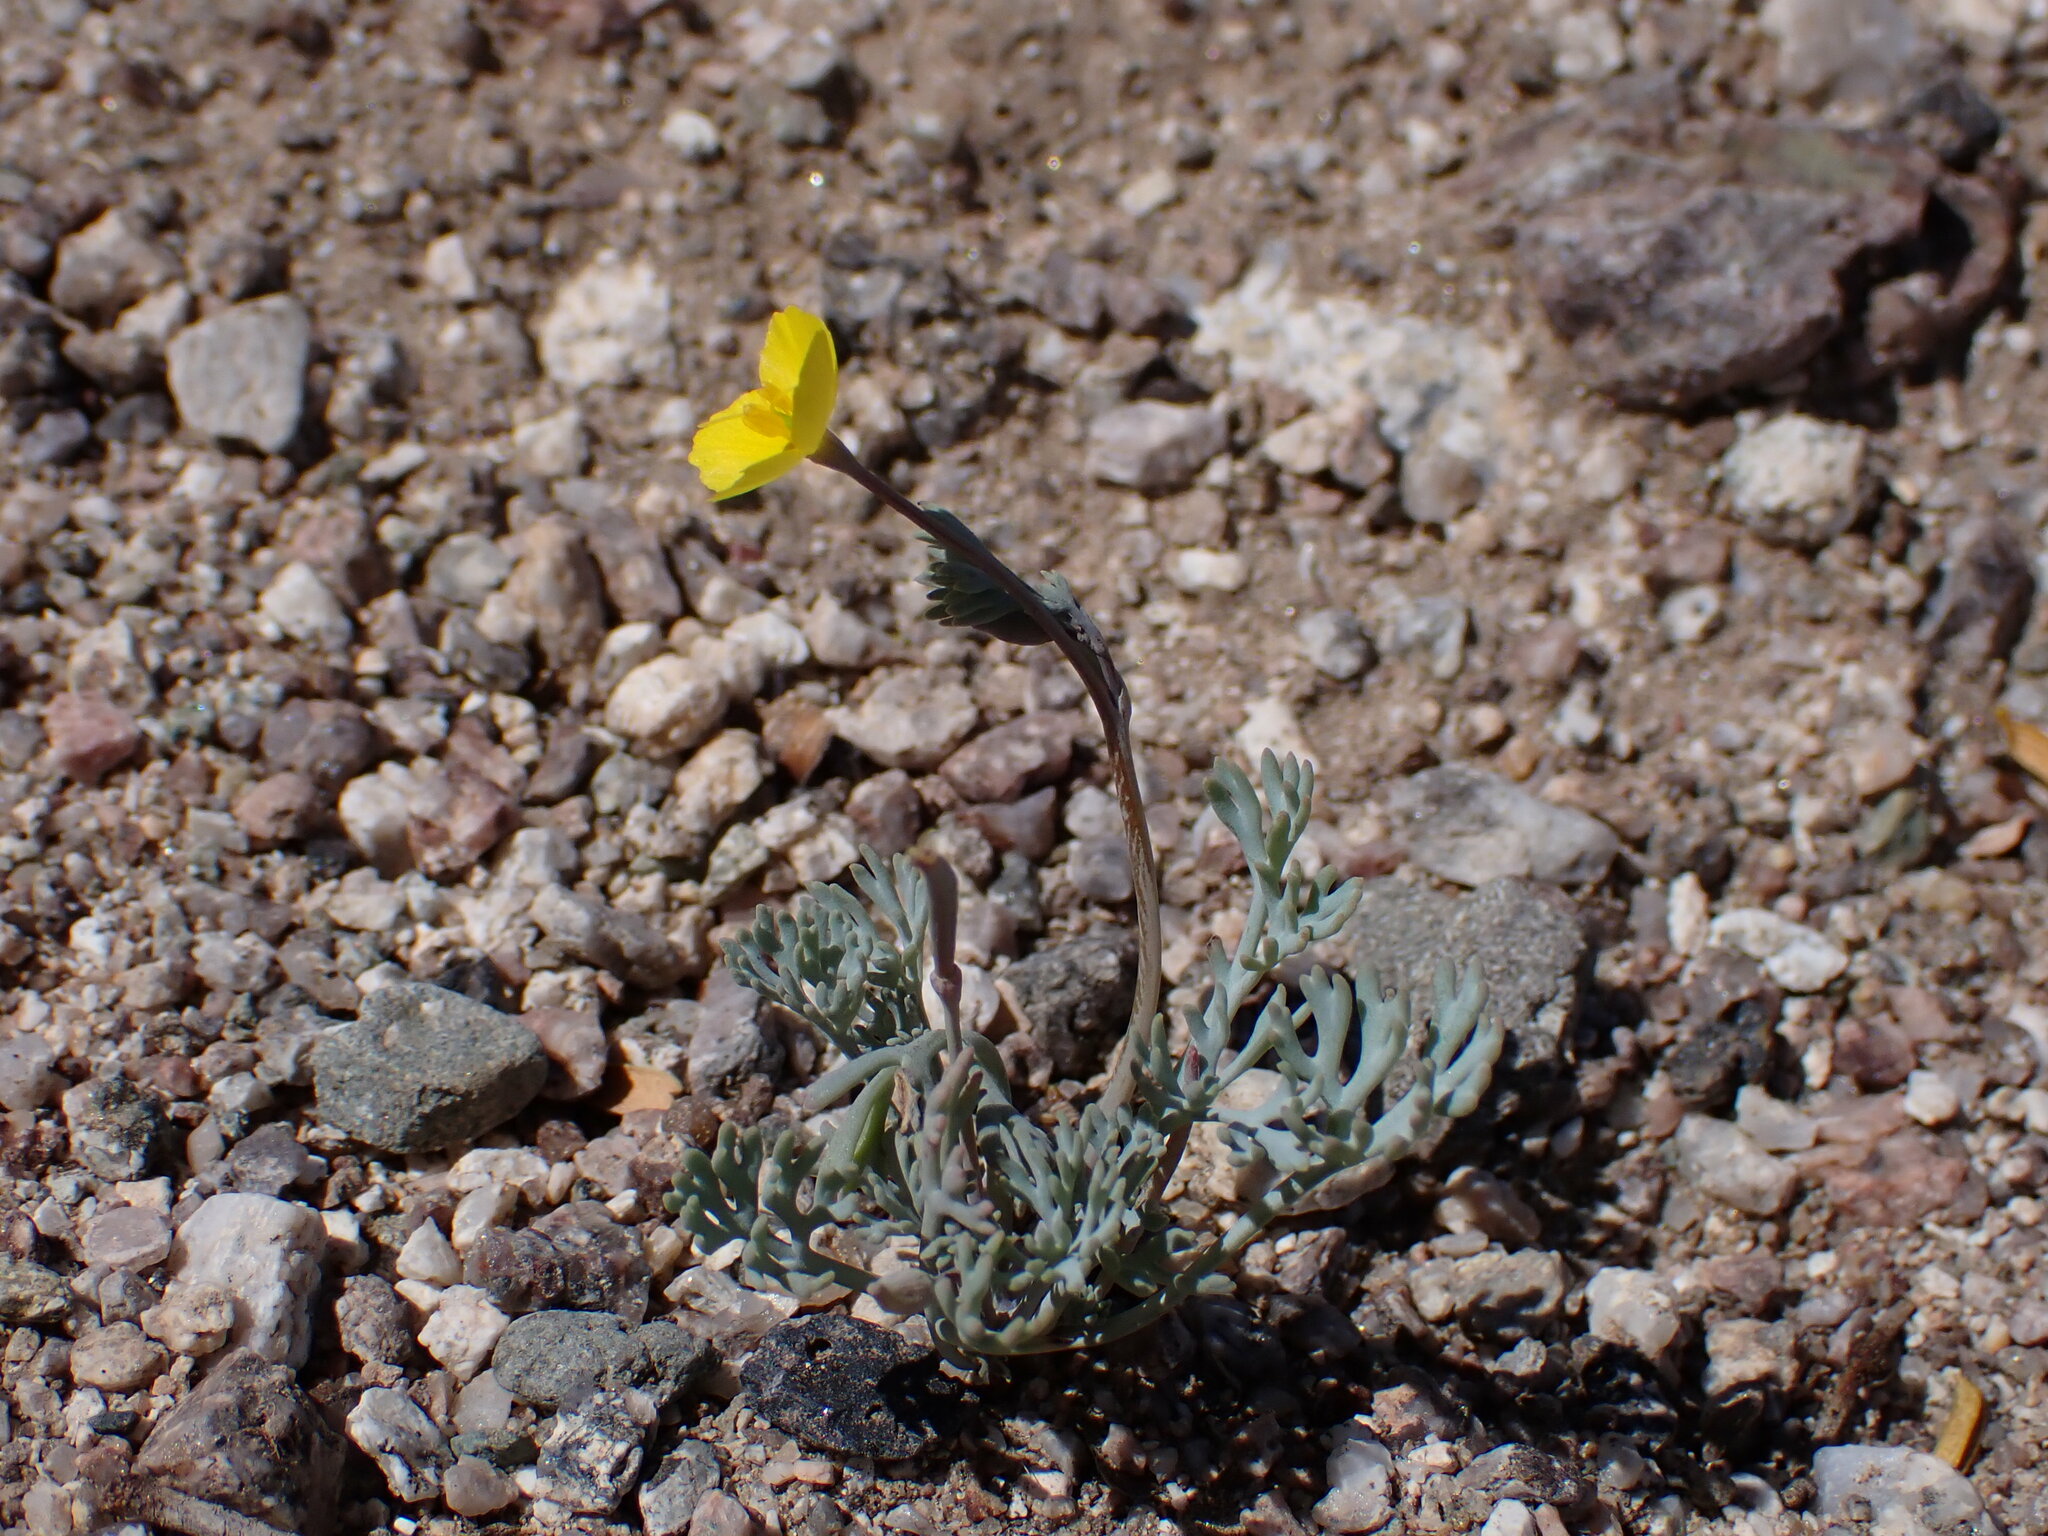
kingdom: Plantae
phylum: Tracheophyta
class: Magnoliopsida
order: Ranunculales
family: Papaveraceae
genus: Eschscholzia
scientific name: Eschscholzia minutiflora
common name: Small-flower california-poppy
